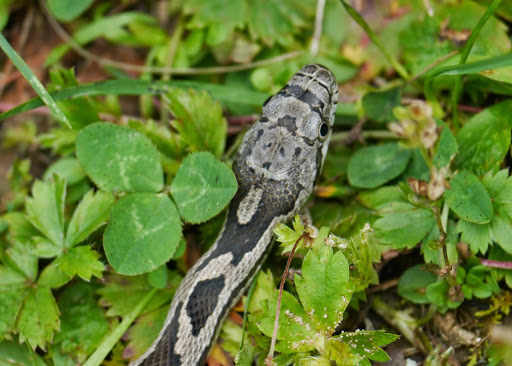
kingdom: Animalia
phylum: Chordata
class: Squamata
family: Colubridae
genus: Pantherophis
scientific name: Pantherophis spiloides
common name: Gray rat snake
